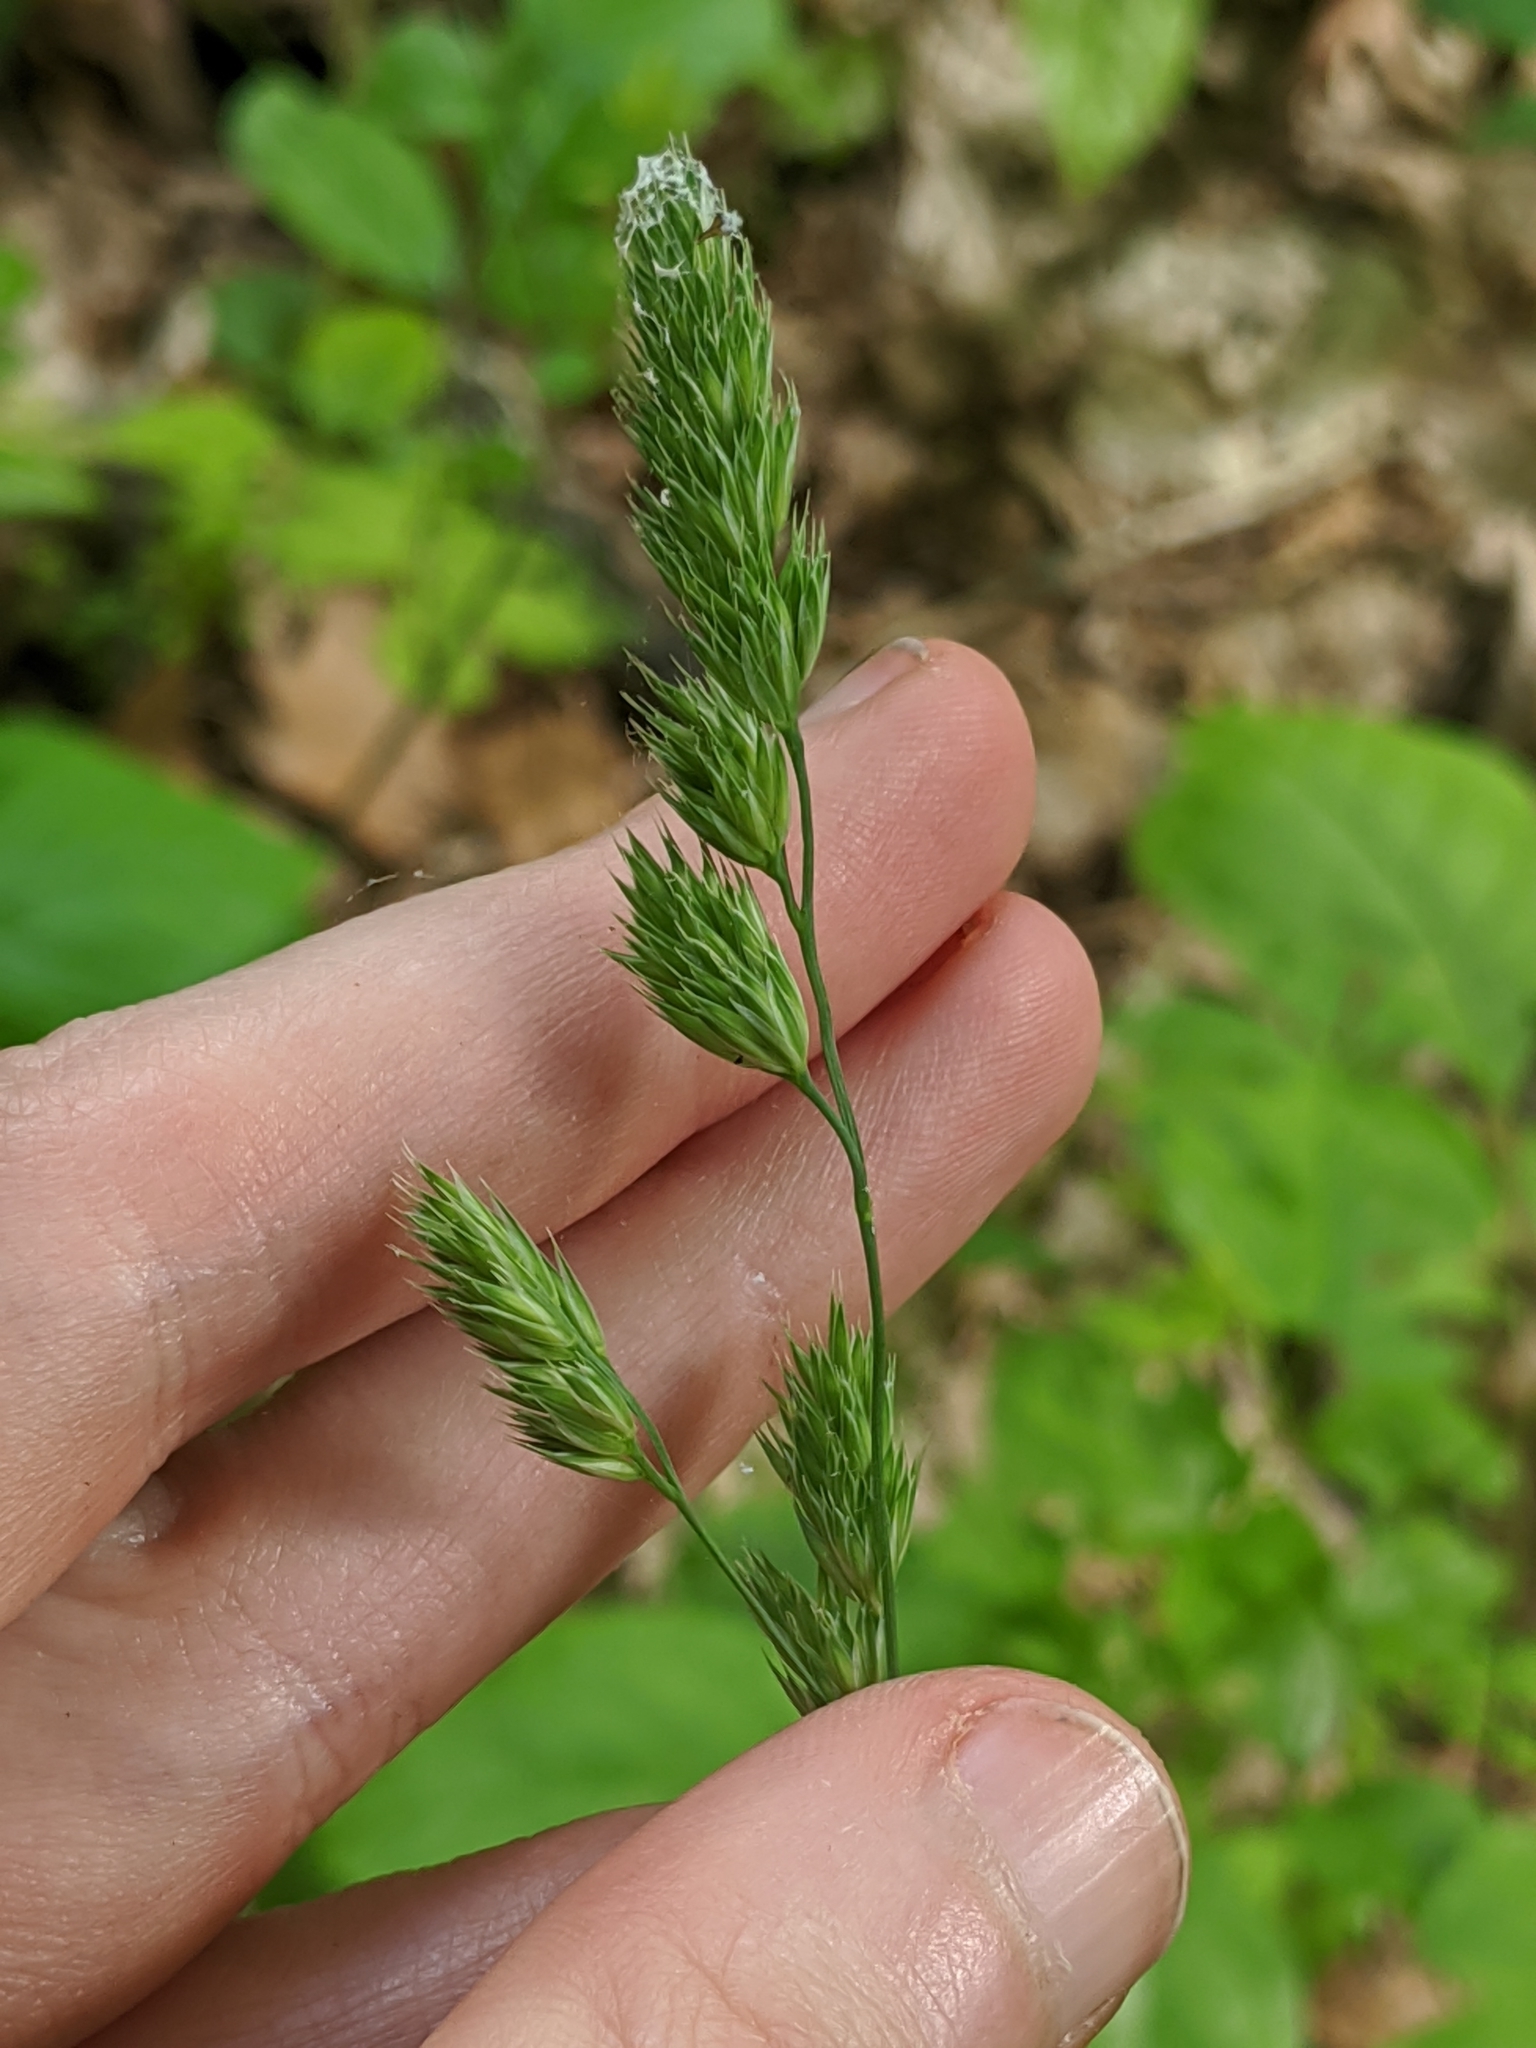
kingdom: Plantae
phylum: Tracheophyta
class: Liliopsida
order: Poales
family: Poaceae
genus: Dactylis
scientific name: Dactylis glomerata
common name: Orchardgrass
